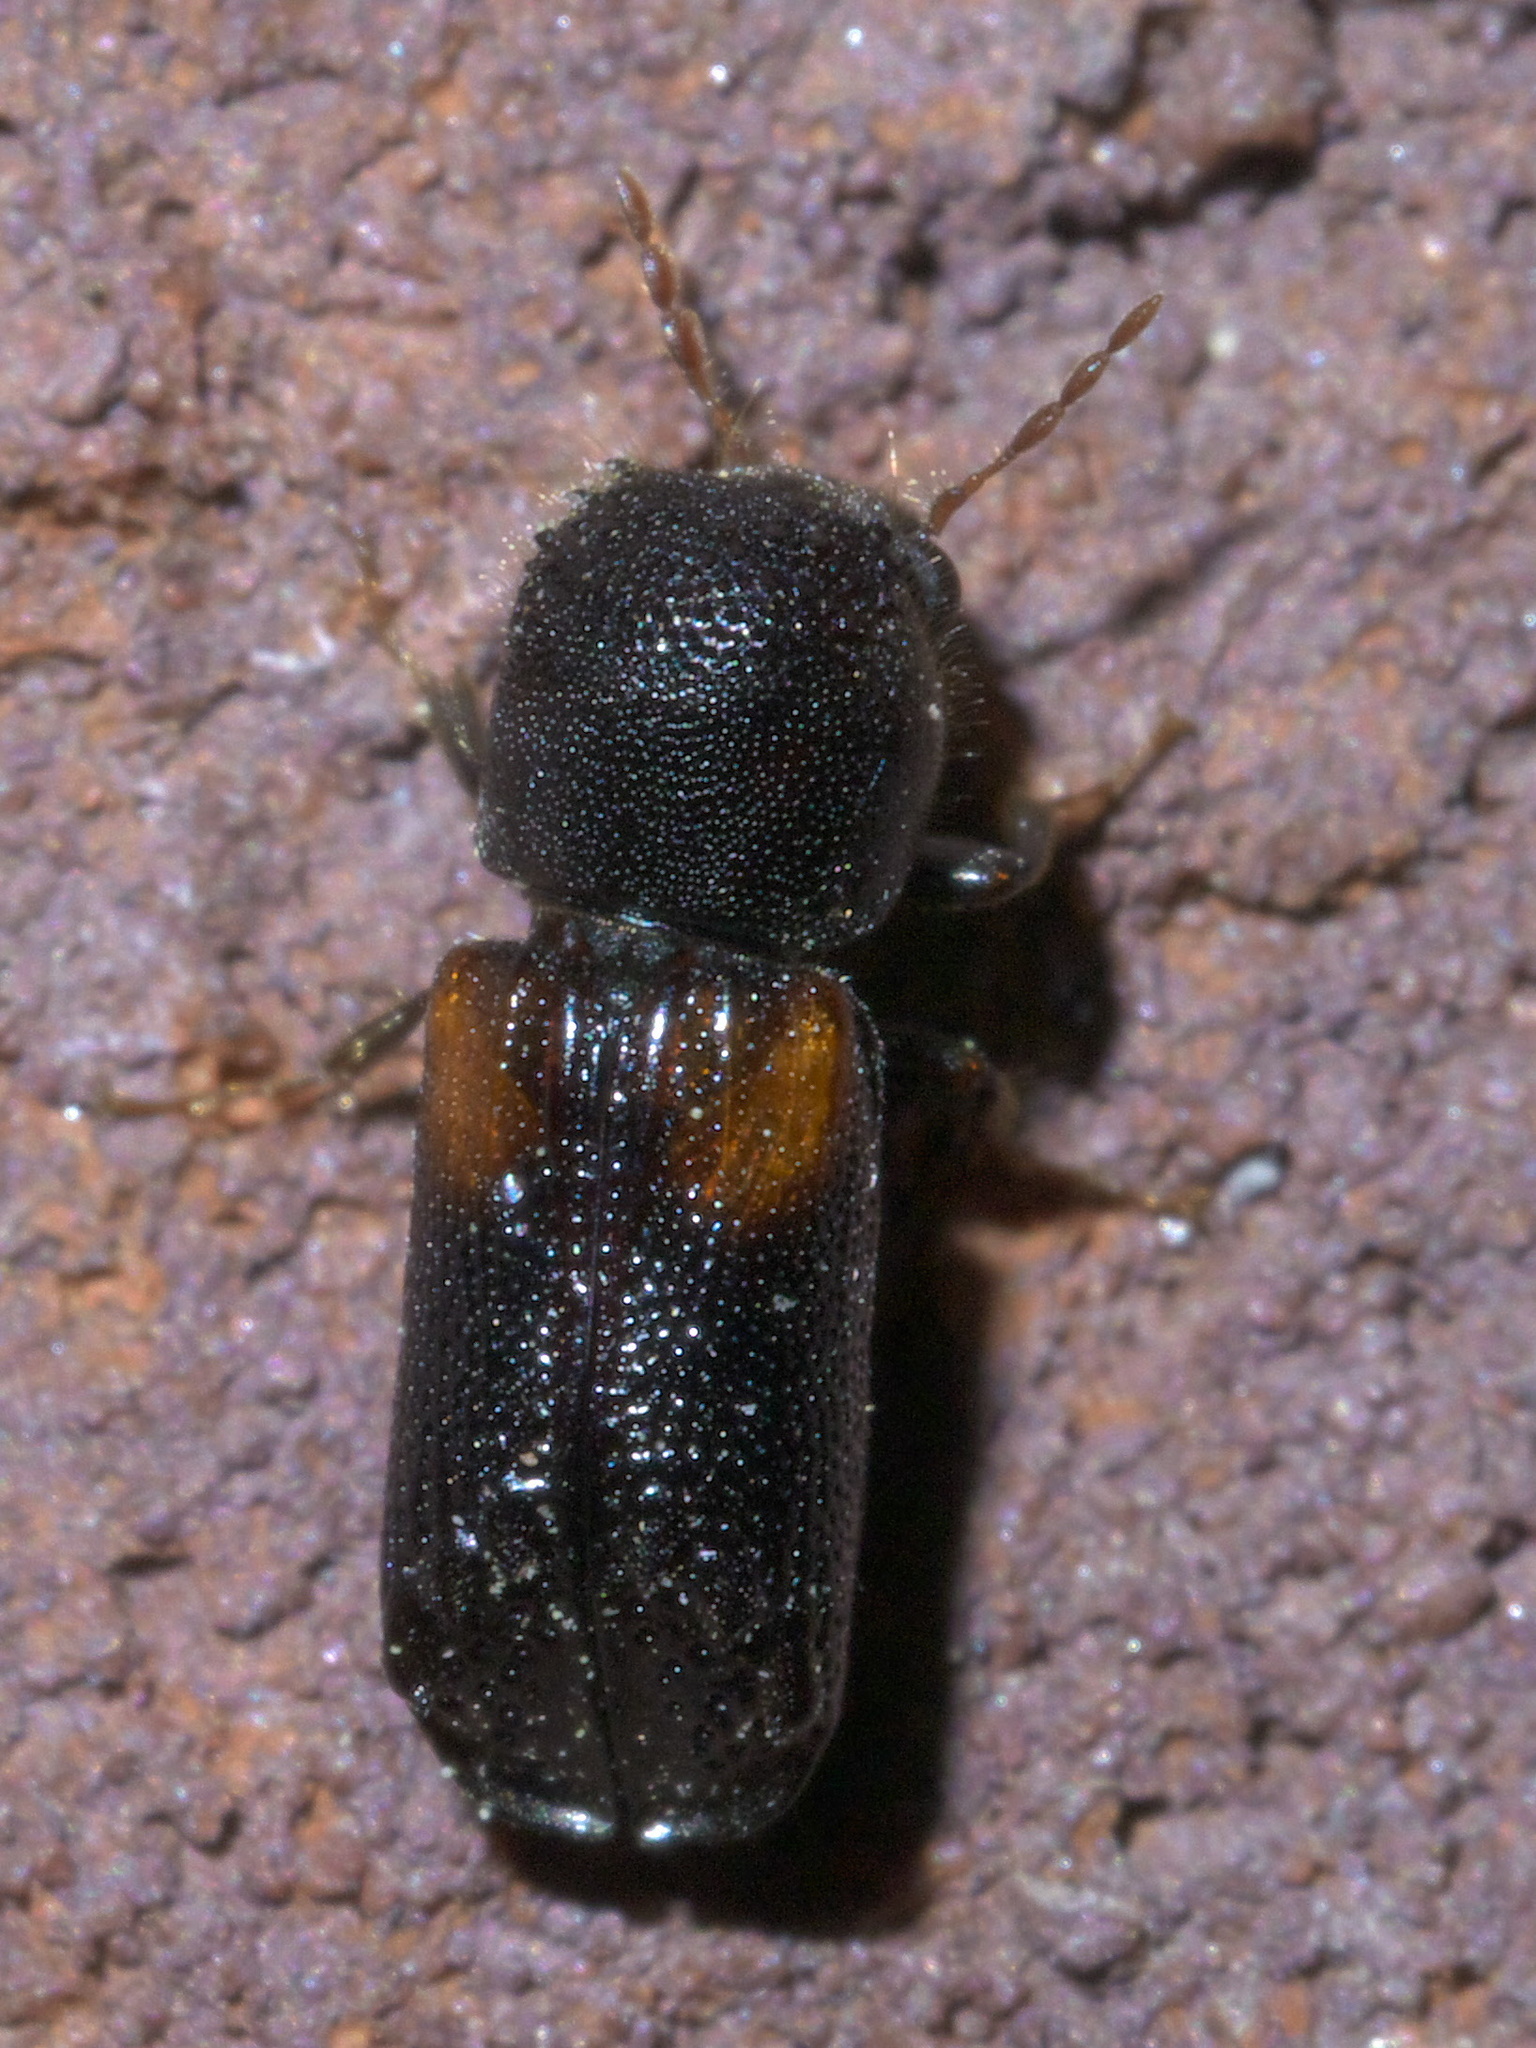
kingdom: Animalia
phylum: Arthropoda
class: Insecta
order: Coleoptera
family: Bostrichidae
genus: Xylobiops
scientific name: Xylobiops basilaris
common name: Red-shouldered bostrichid
